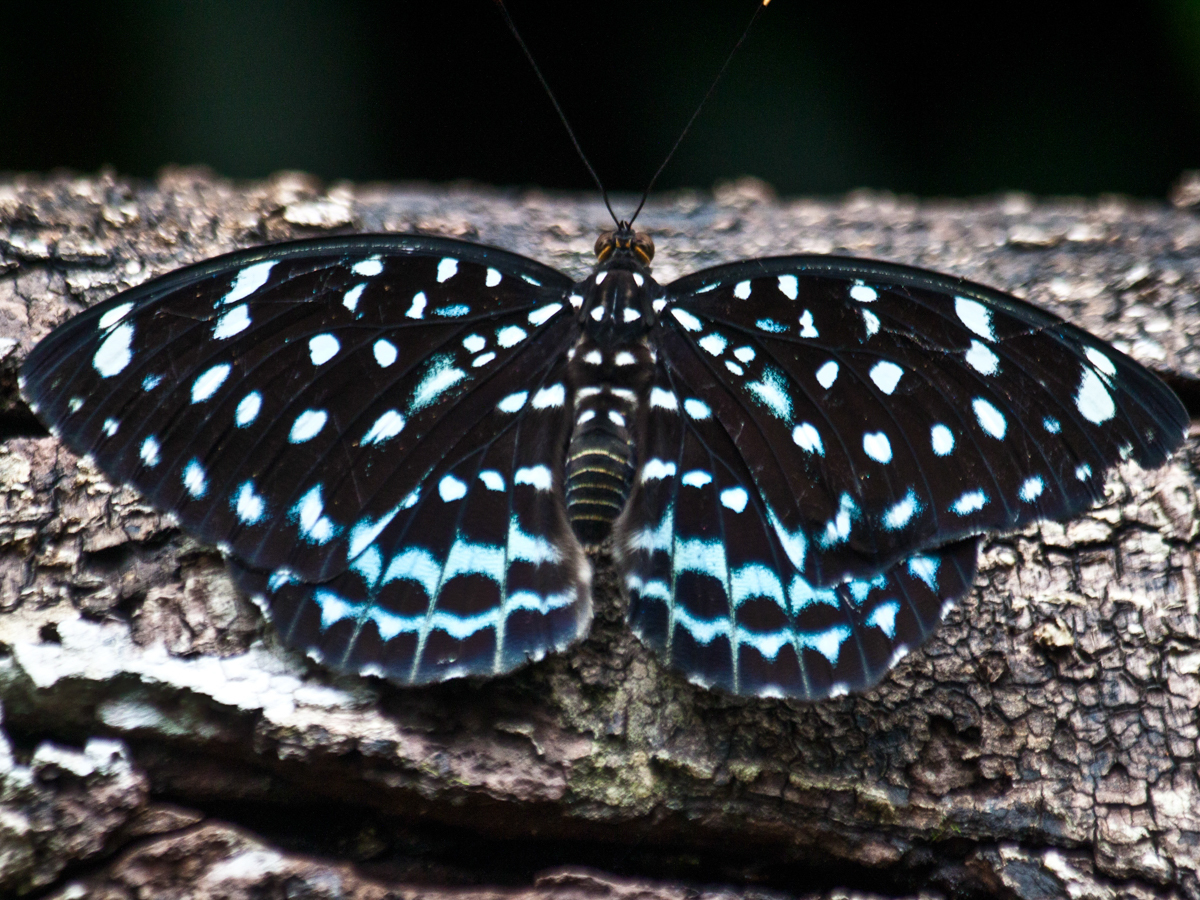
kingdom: Animalia
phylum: Arthropoda
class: Insecta
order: Lepidoptera
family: Nymphalidae
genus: Lexias
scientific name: Lexias
